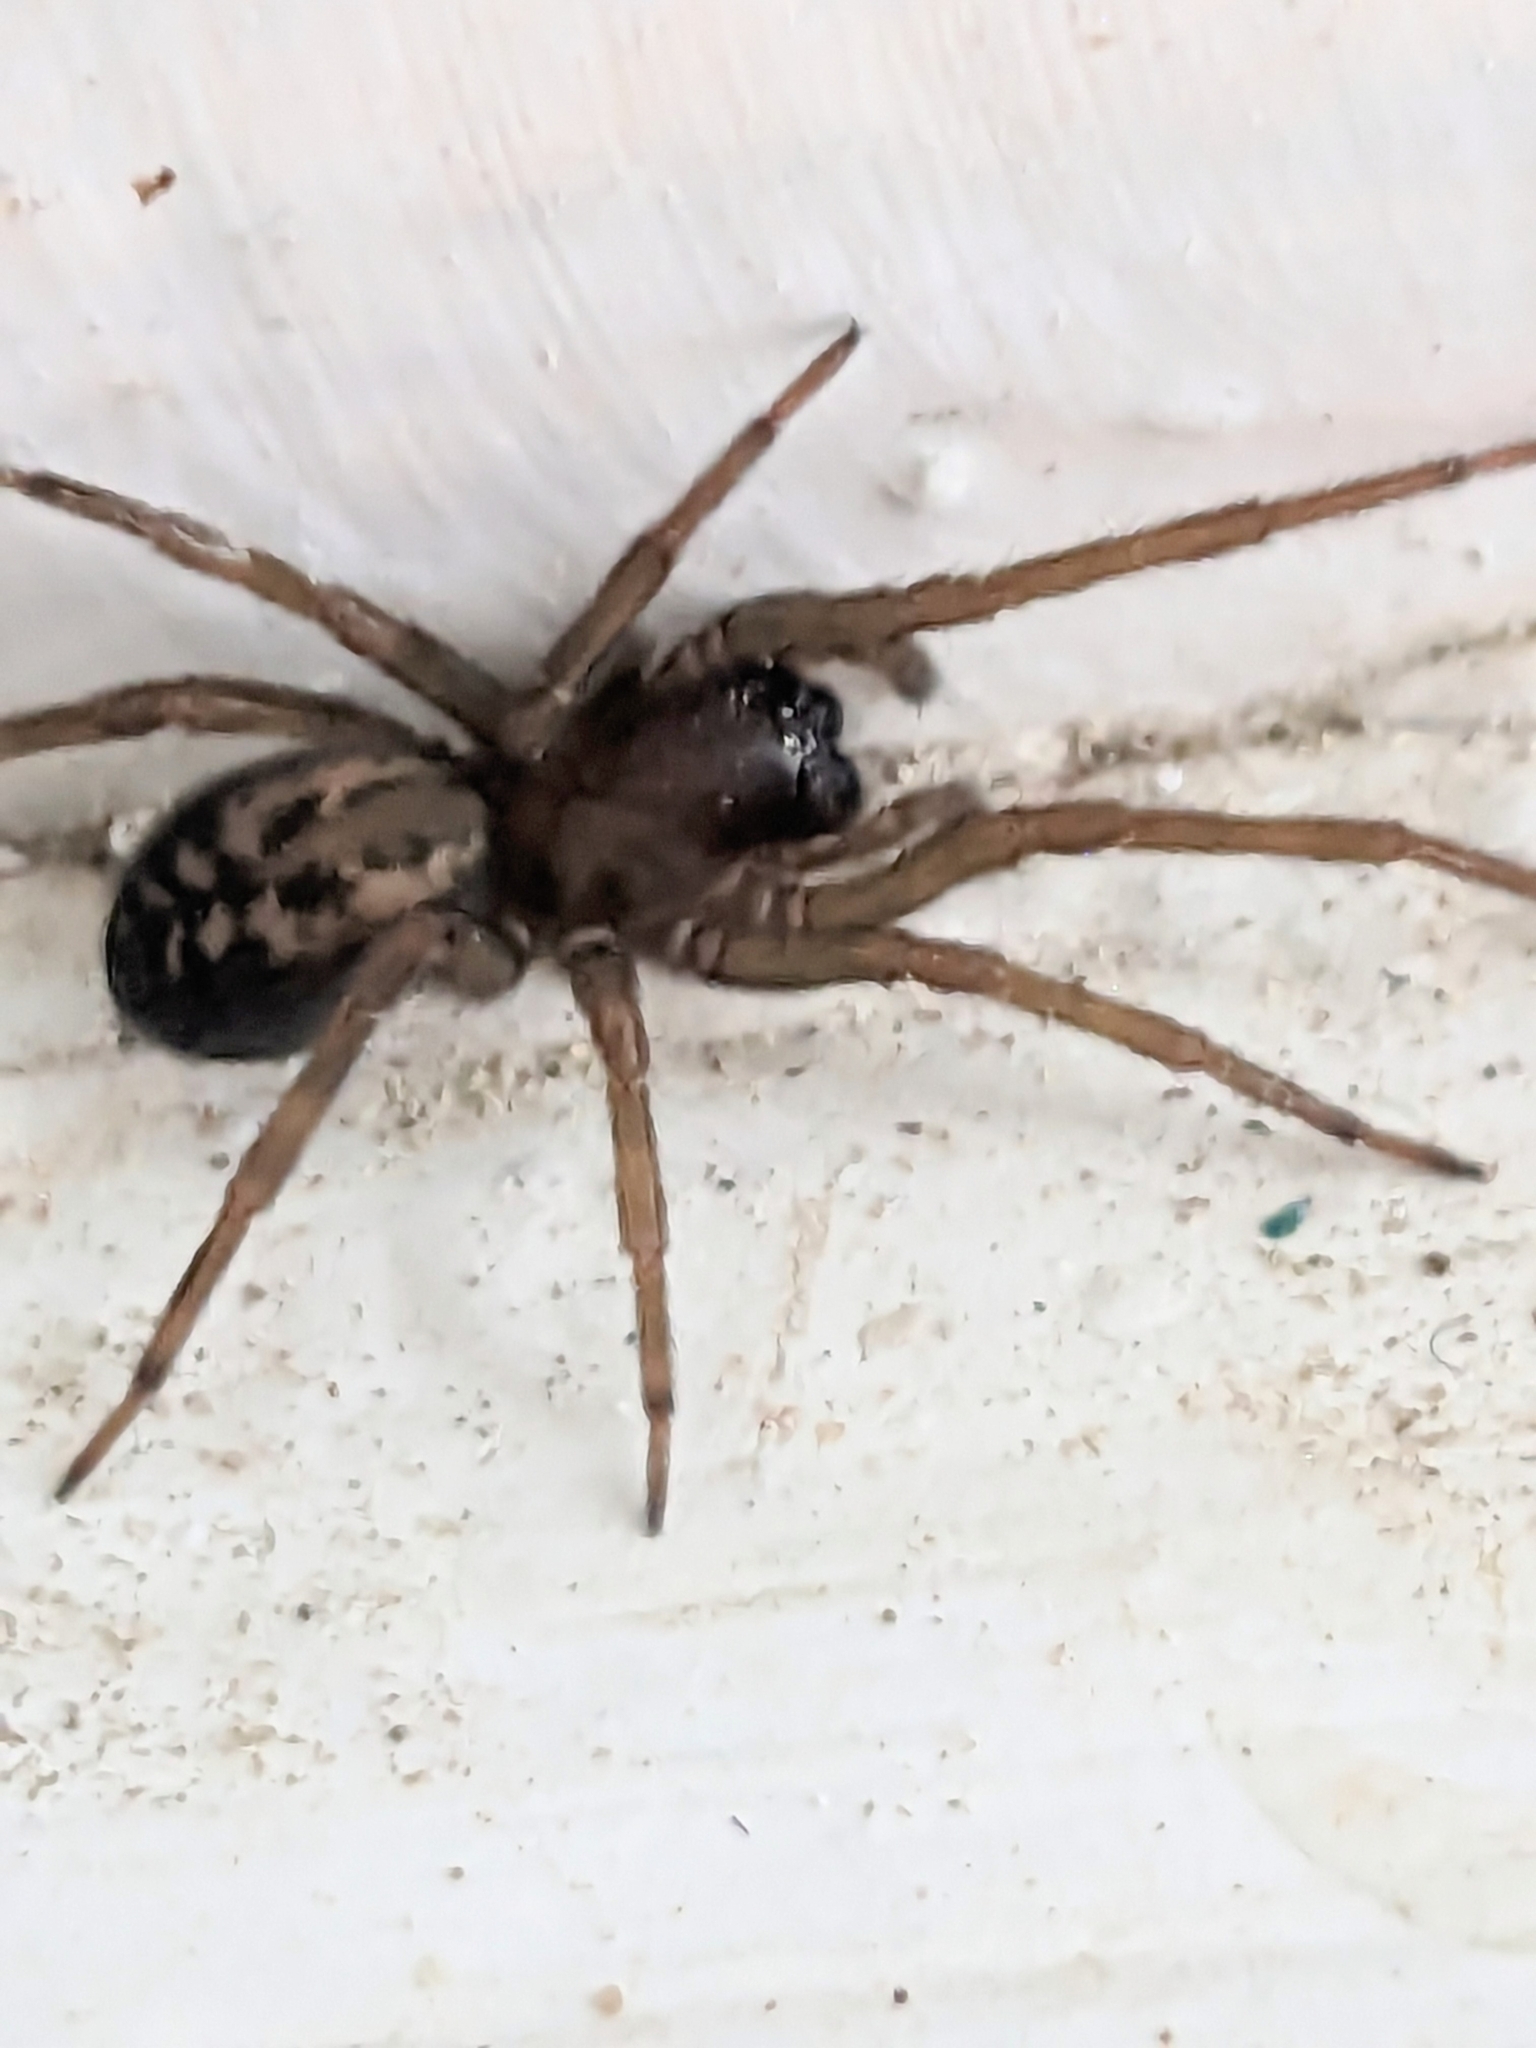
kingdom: Animalia
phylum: Arthropoda
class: Arachnida
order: Araneae
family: Amaurobiidae
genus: Amaurobius
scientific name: Amaurobius ferox
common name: Black laceweaver
